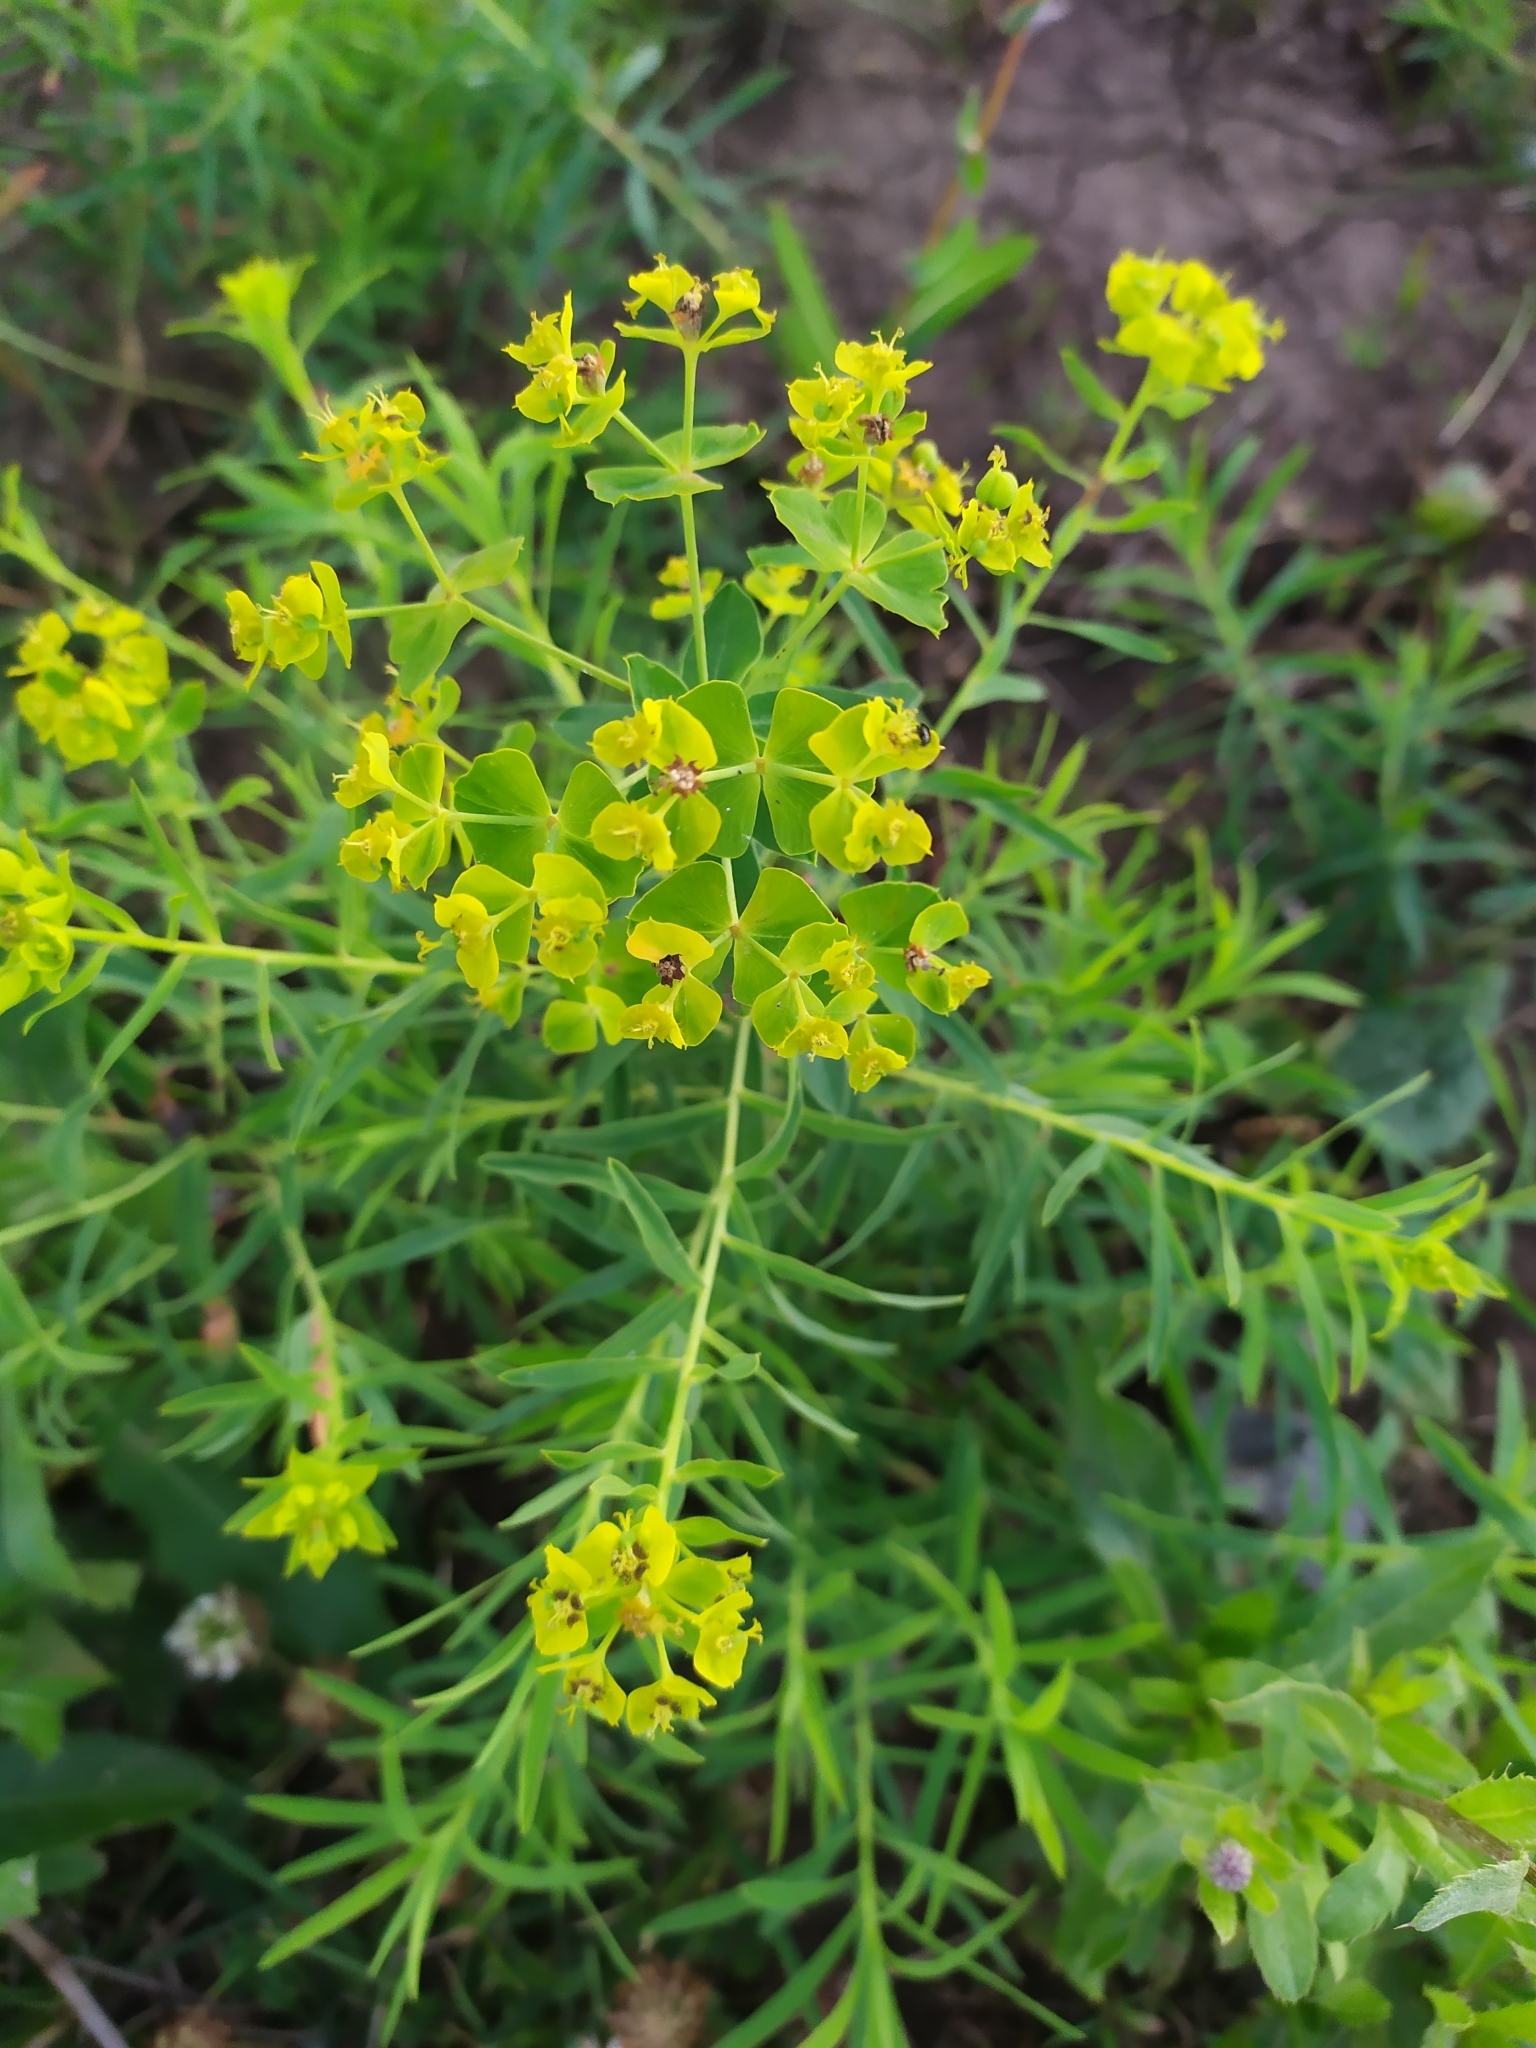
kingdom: Plantae
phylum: Tracheophyta
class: Magnoliopsida
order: Malpighiales
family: Euphorbiaceae
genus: Euphorbia
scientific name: Euphorbia virgata
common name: Leafy spurge
